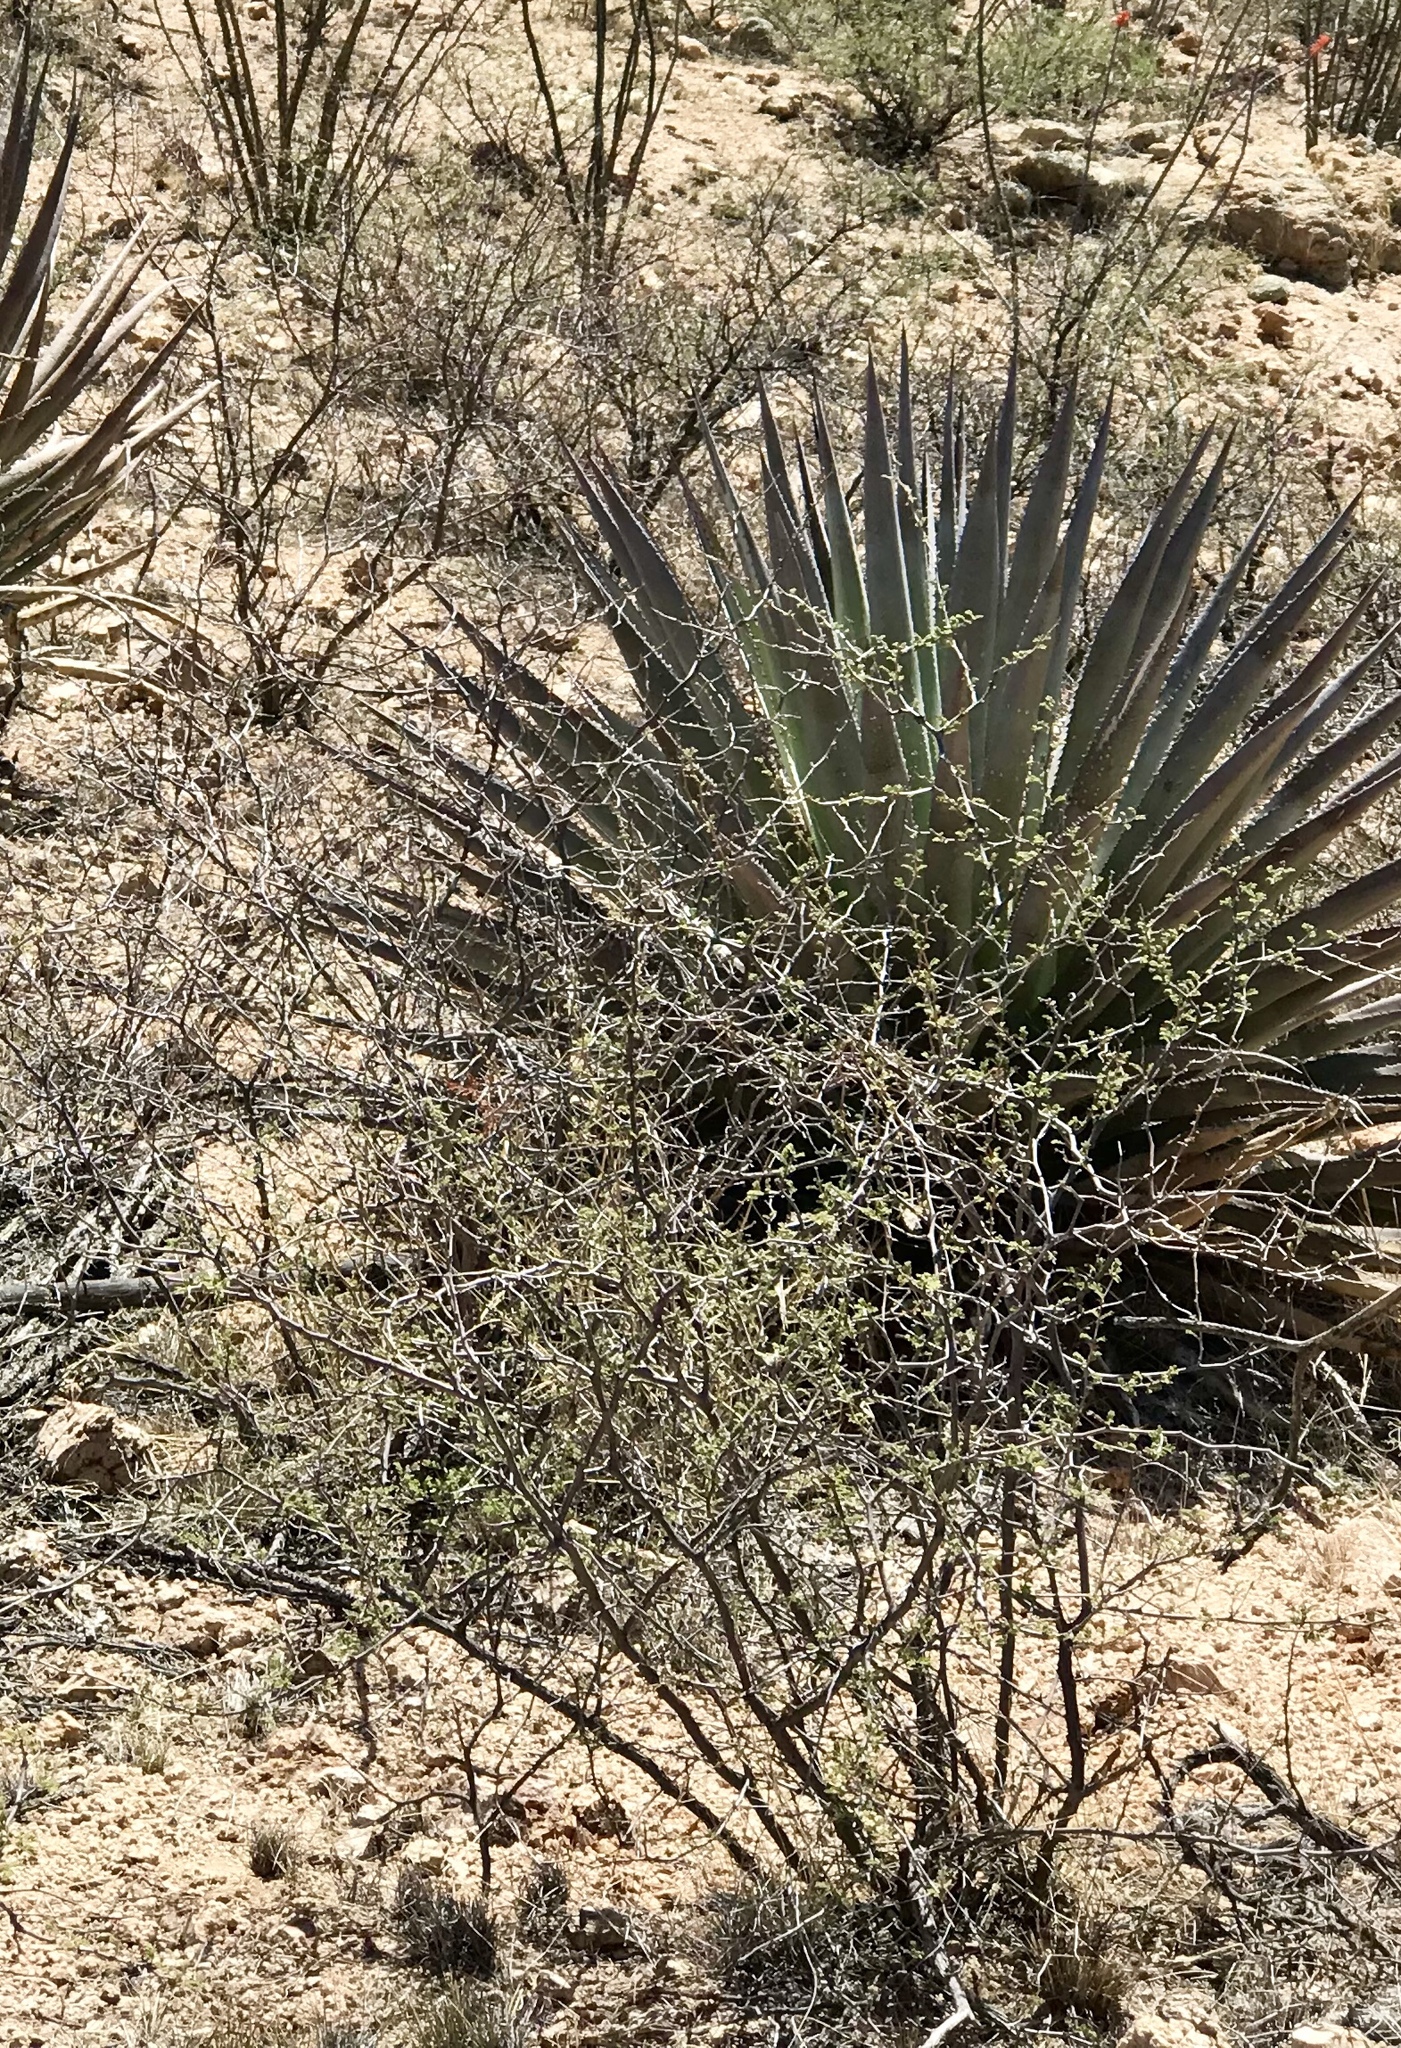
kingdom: Plantae
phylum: Tracheophyta
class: Magnoliopsida
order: Fabales
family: Fabaceae
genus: Mimosa
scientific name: Mimosa biuncifera
